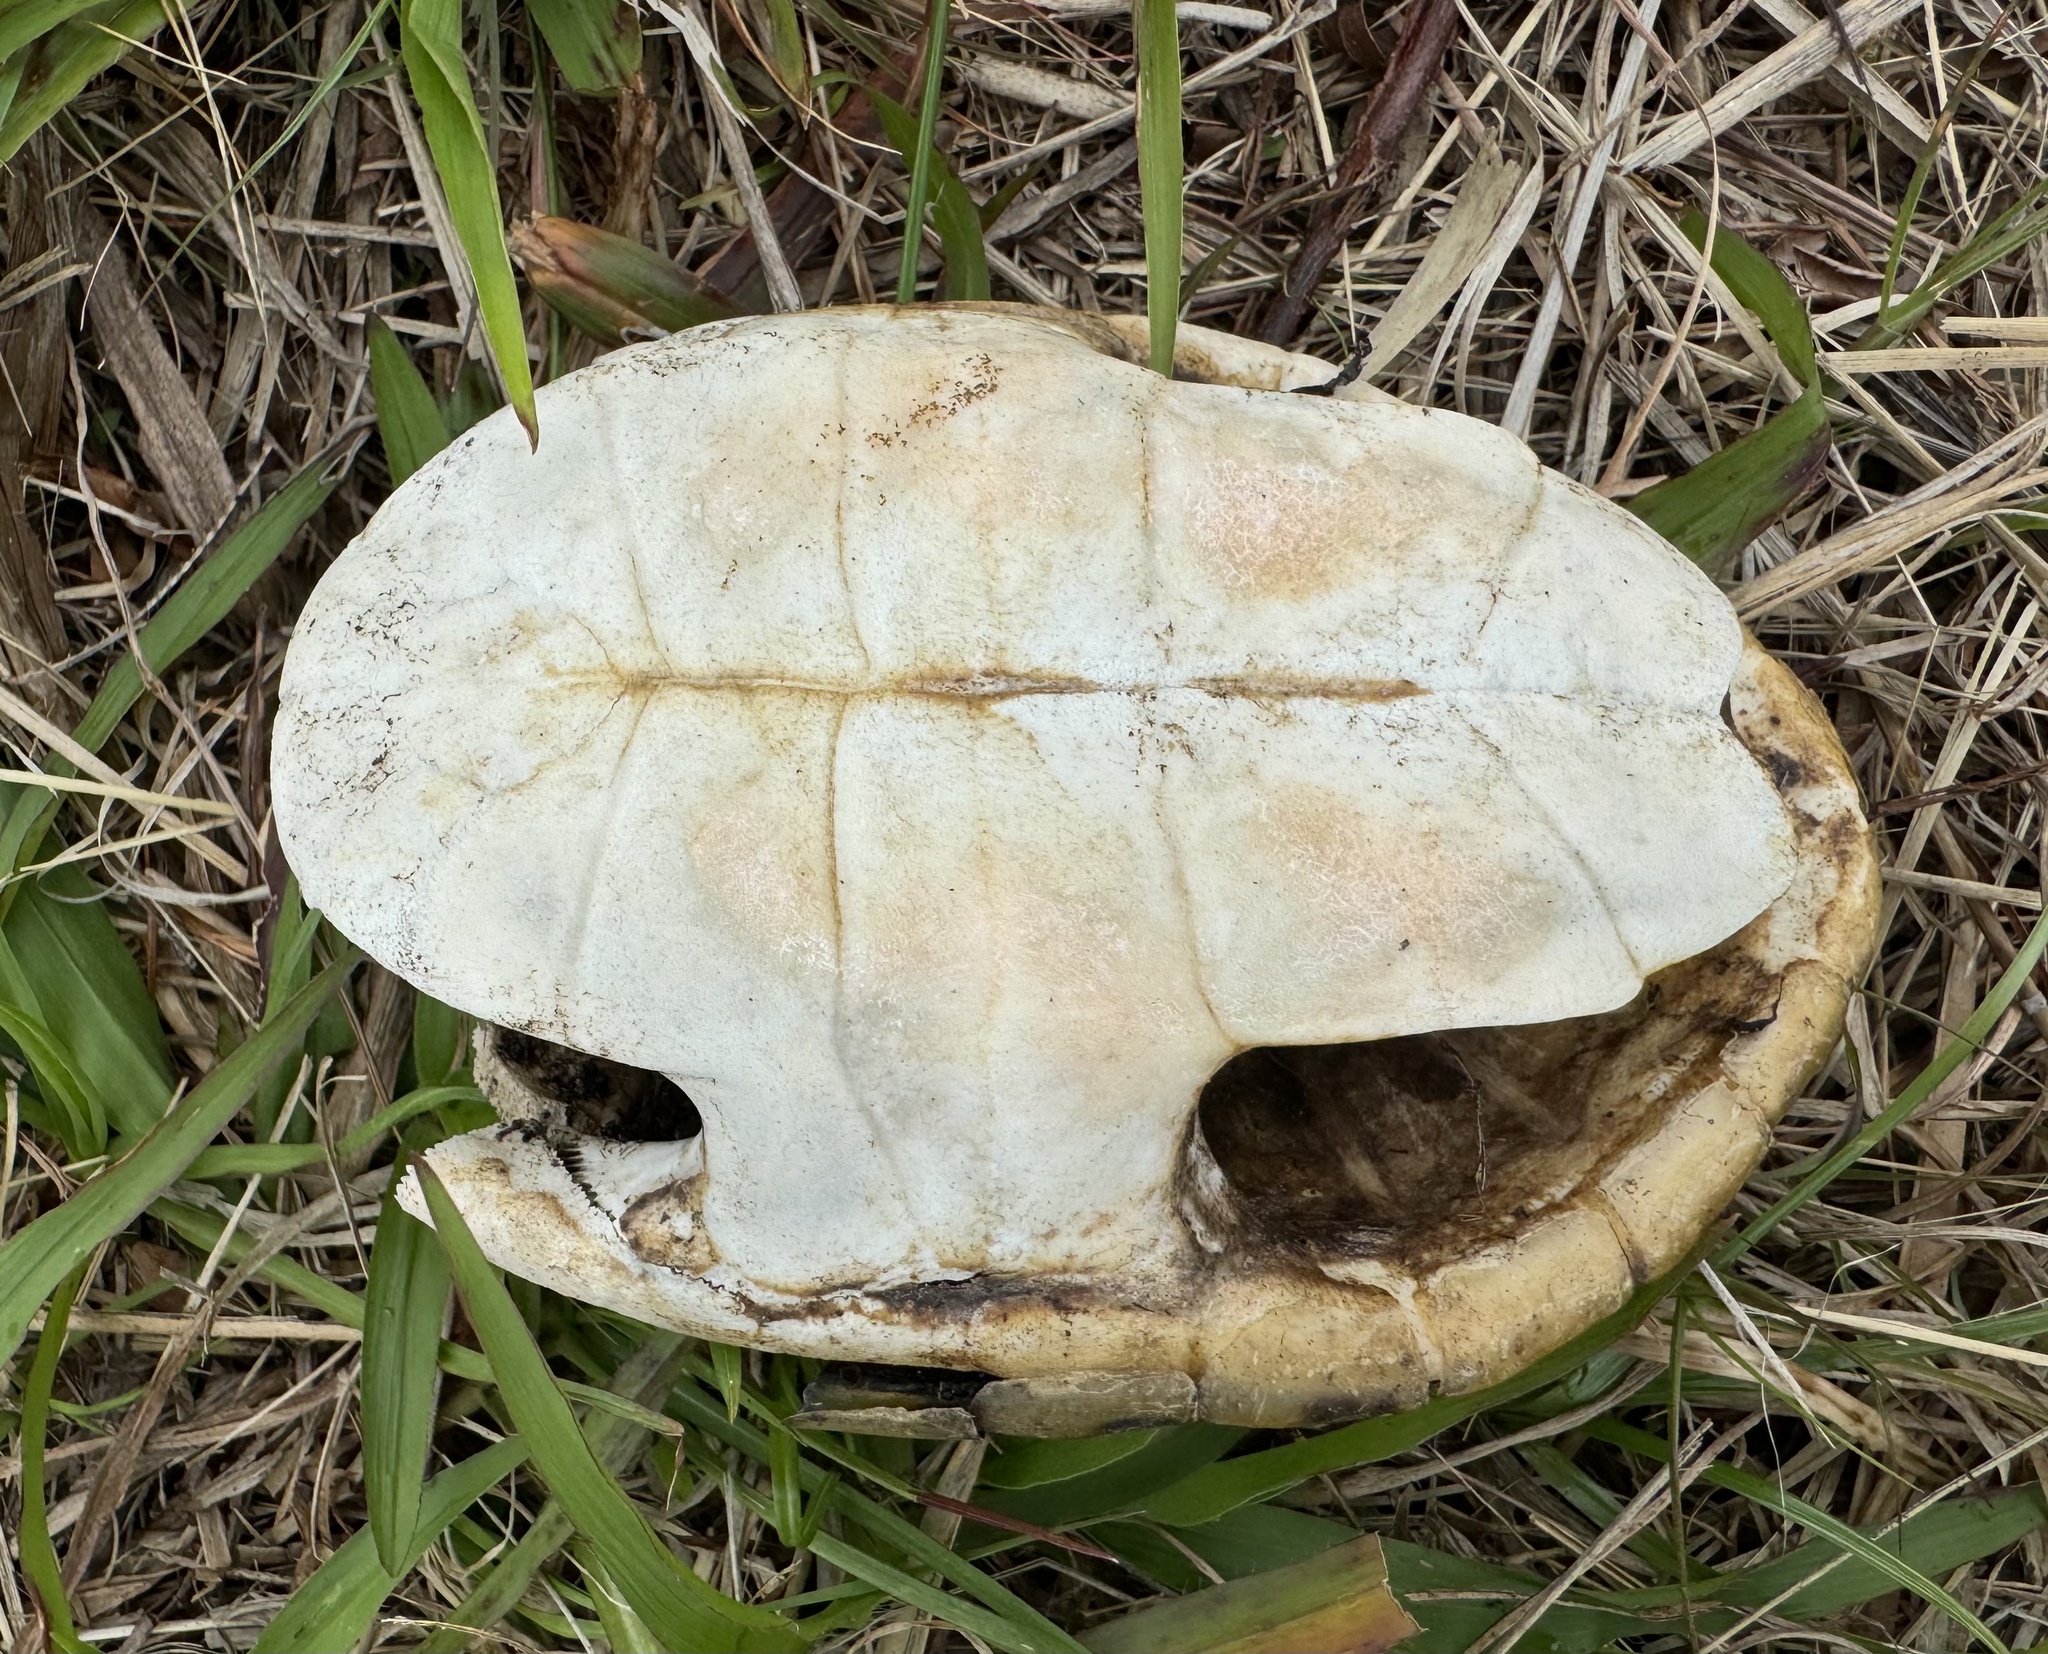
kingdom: Animalia
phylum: Chordata
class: Testudines
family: Emydidae
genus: Malaclemys
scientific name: Malaclemys terrapin
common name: Diamondback terrapin
